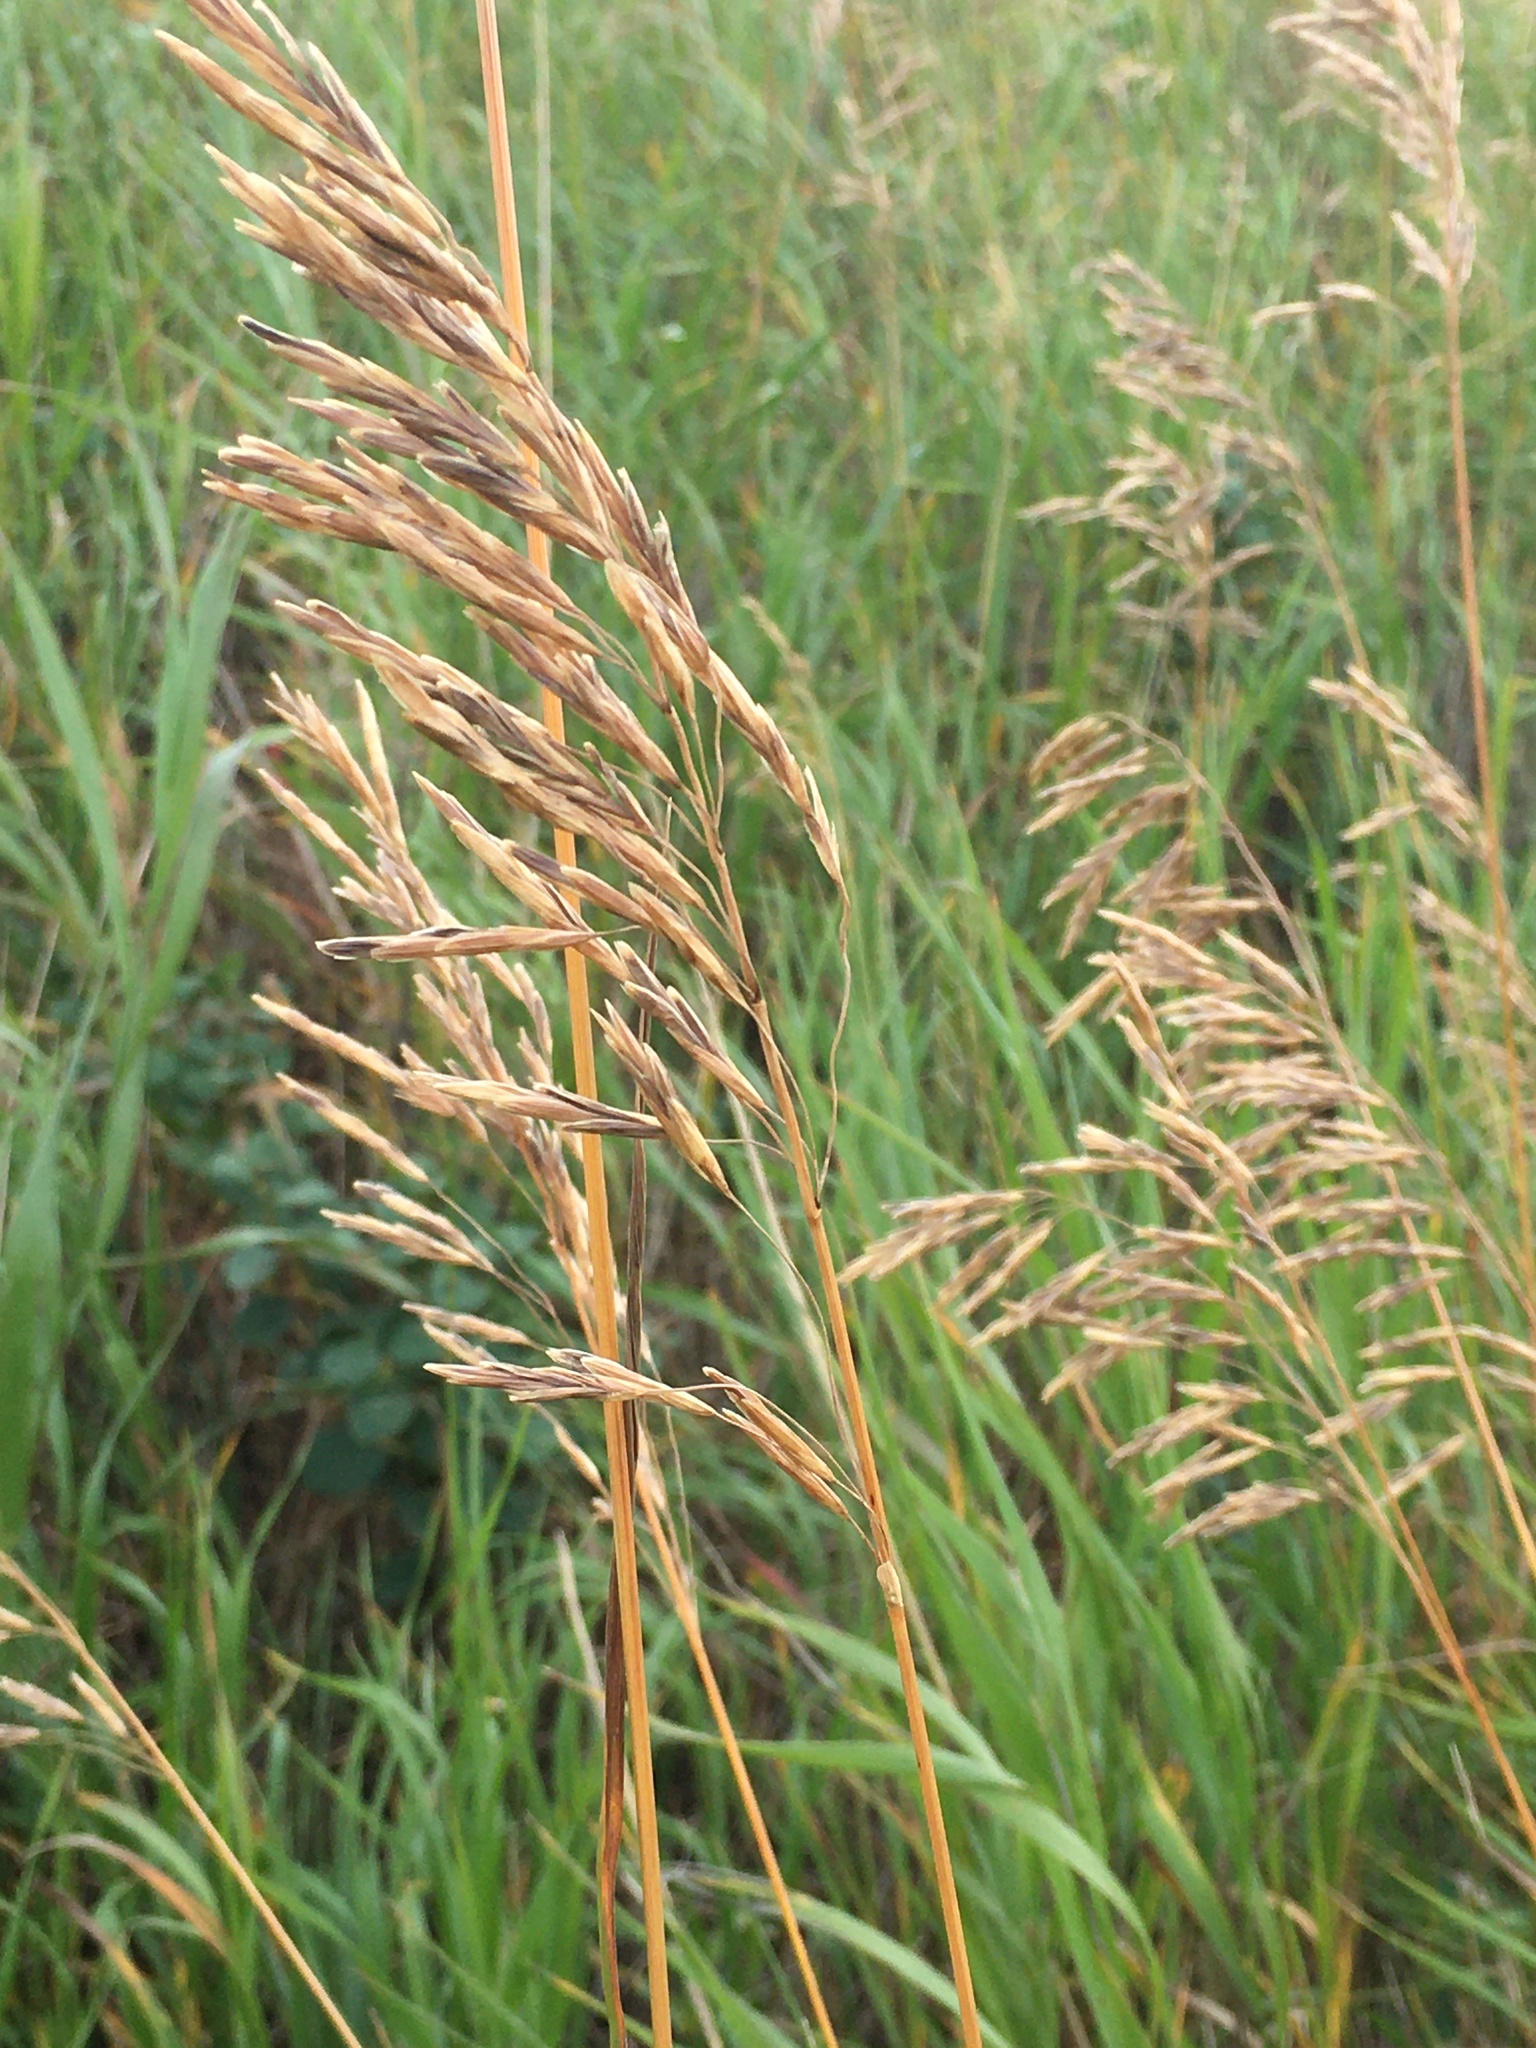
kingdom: Plantae
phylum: Tracheophyta
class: Liliopsida
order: Poales
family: Poaceae
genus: Bromus
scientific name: Bromus inermis
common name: Smooth brome
